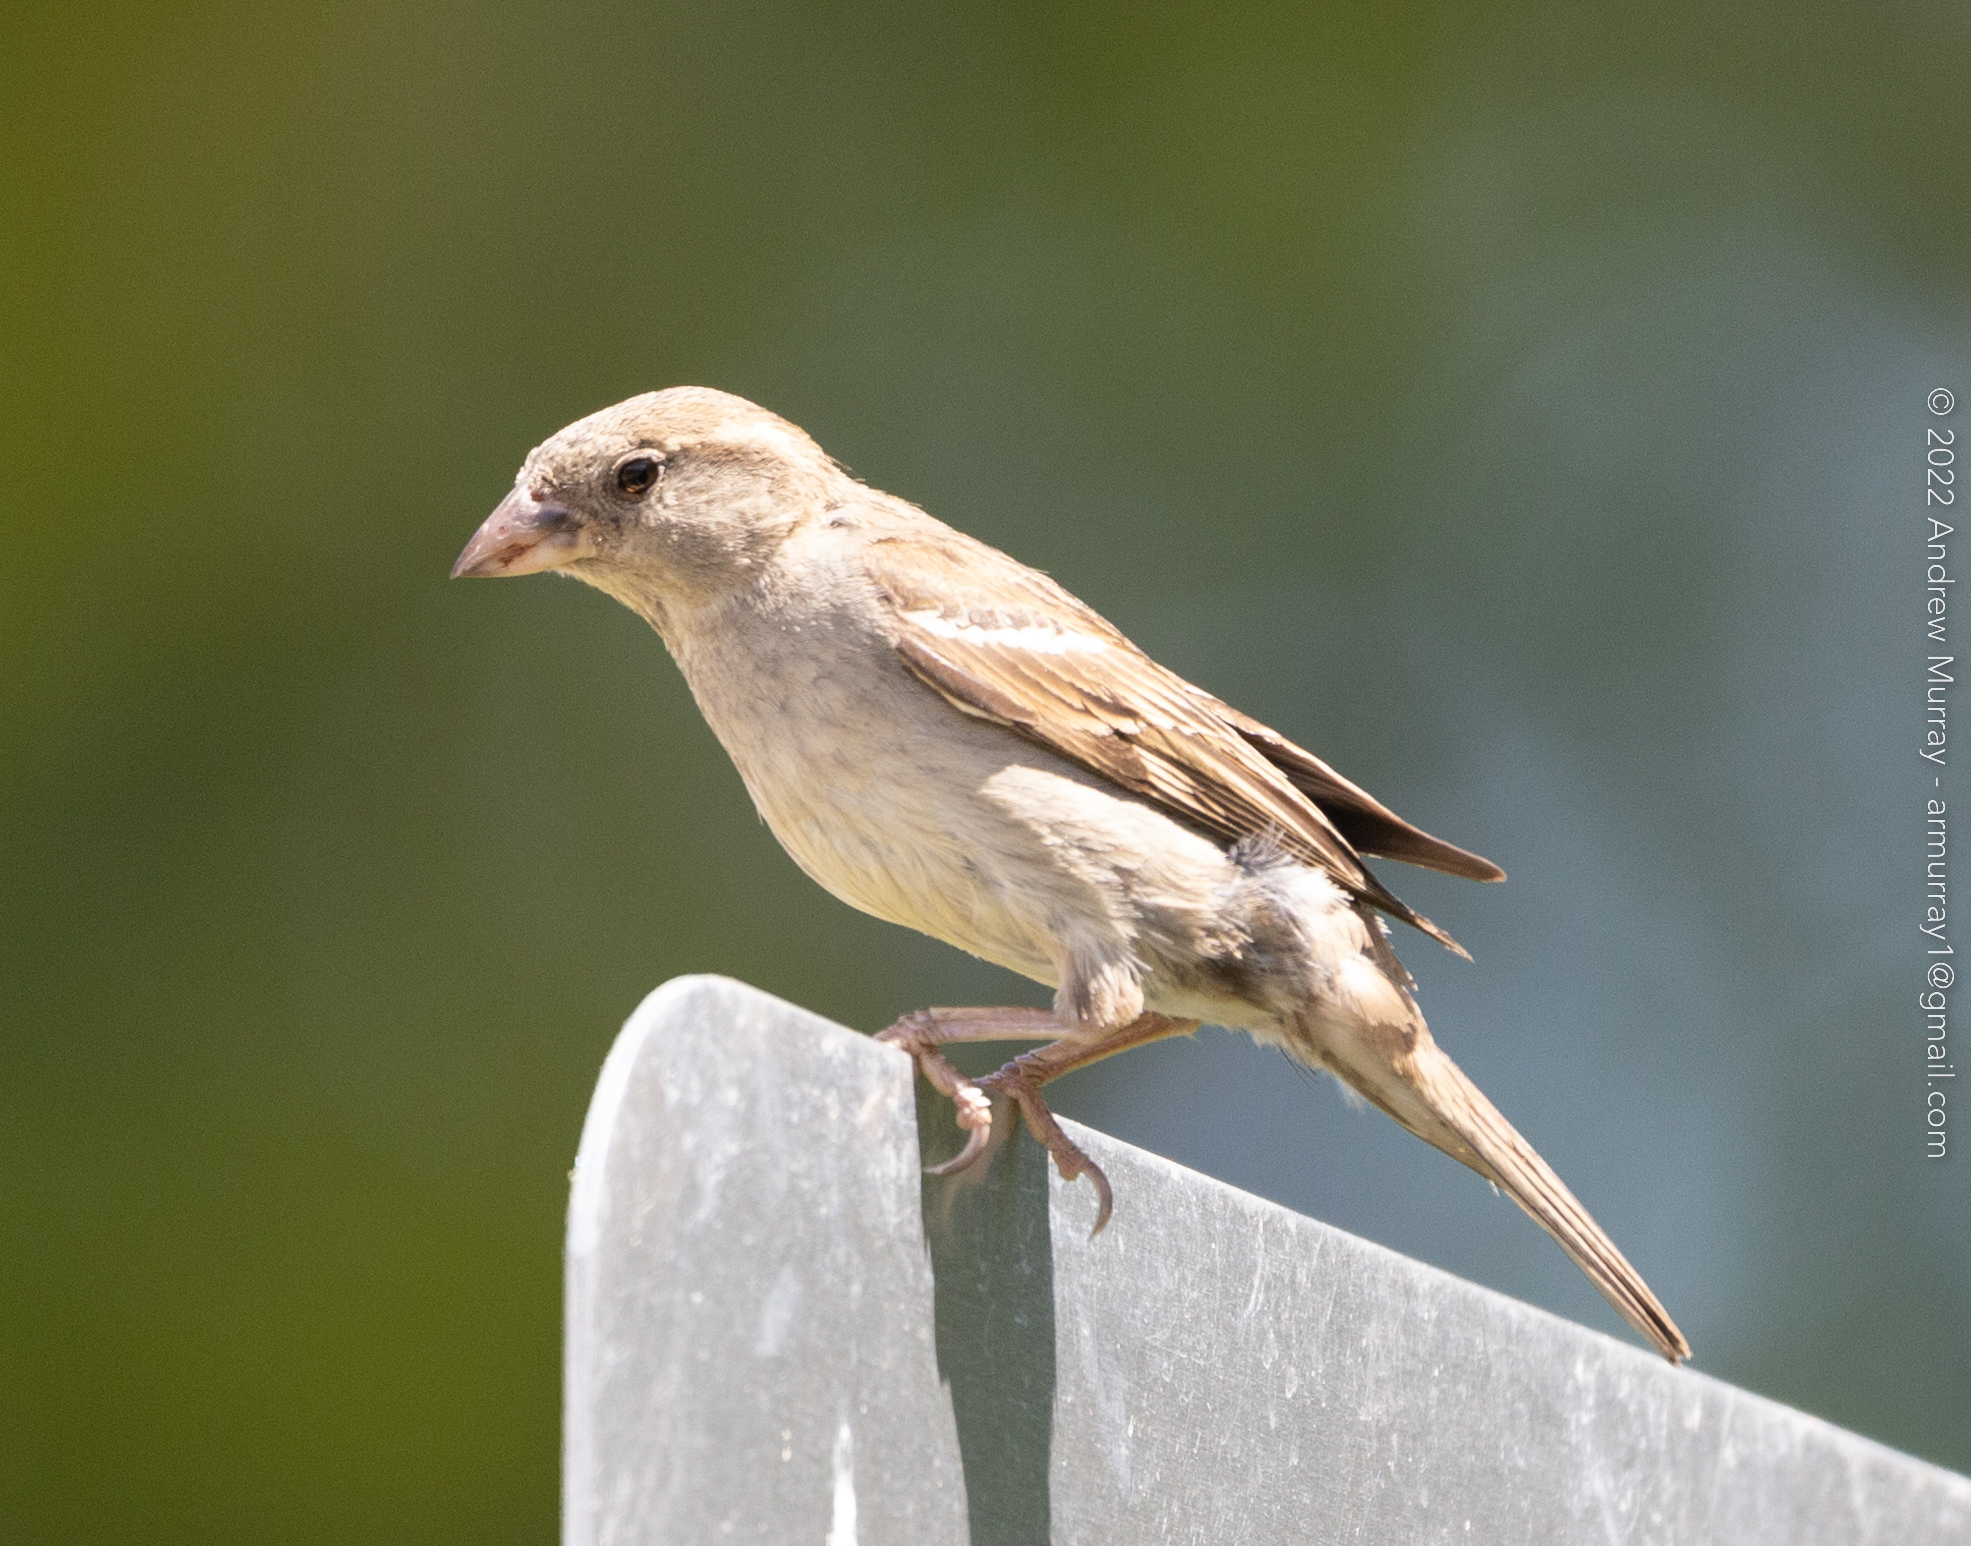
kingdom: Animalia
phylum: Chordata
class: Aves
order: Passeriformes
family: Passeridae
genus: Passer
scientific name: Passer domesticus
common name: House sparrow
